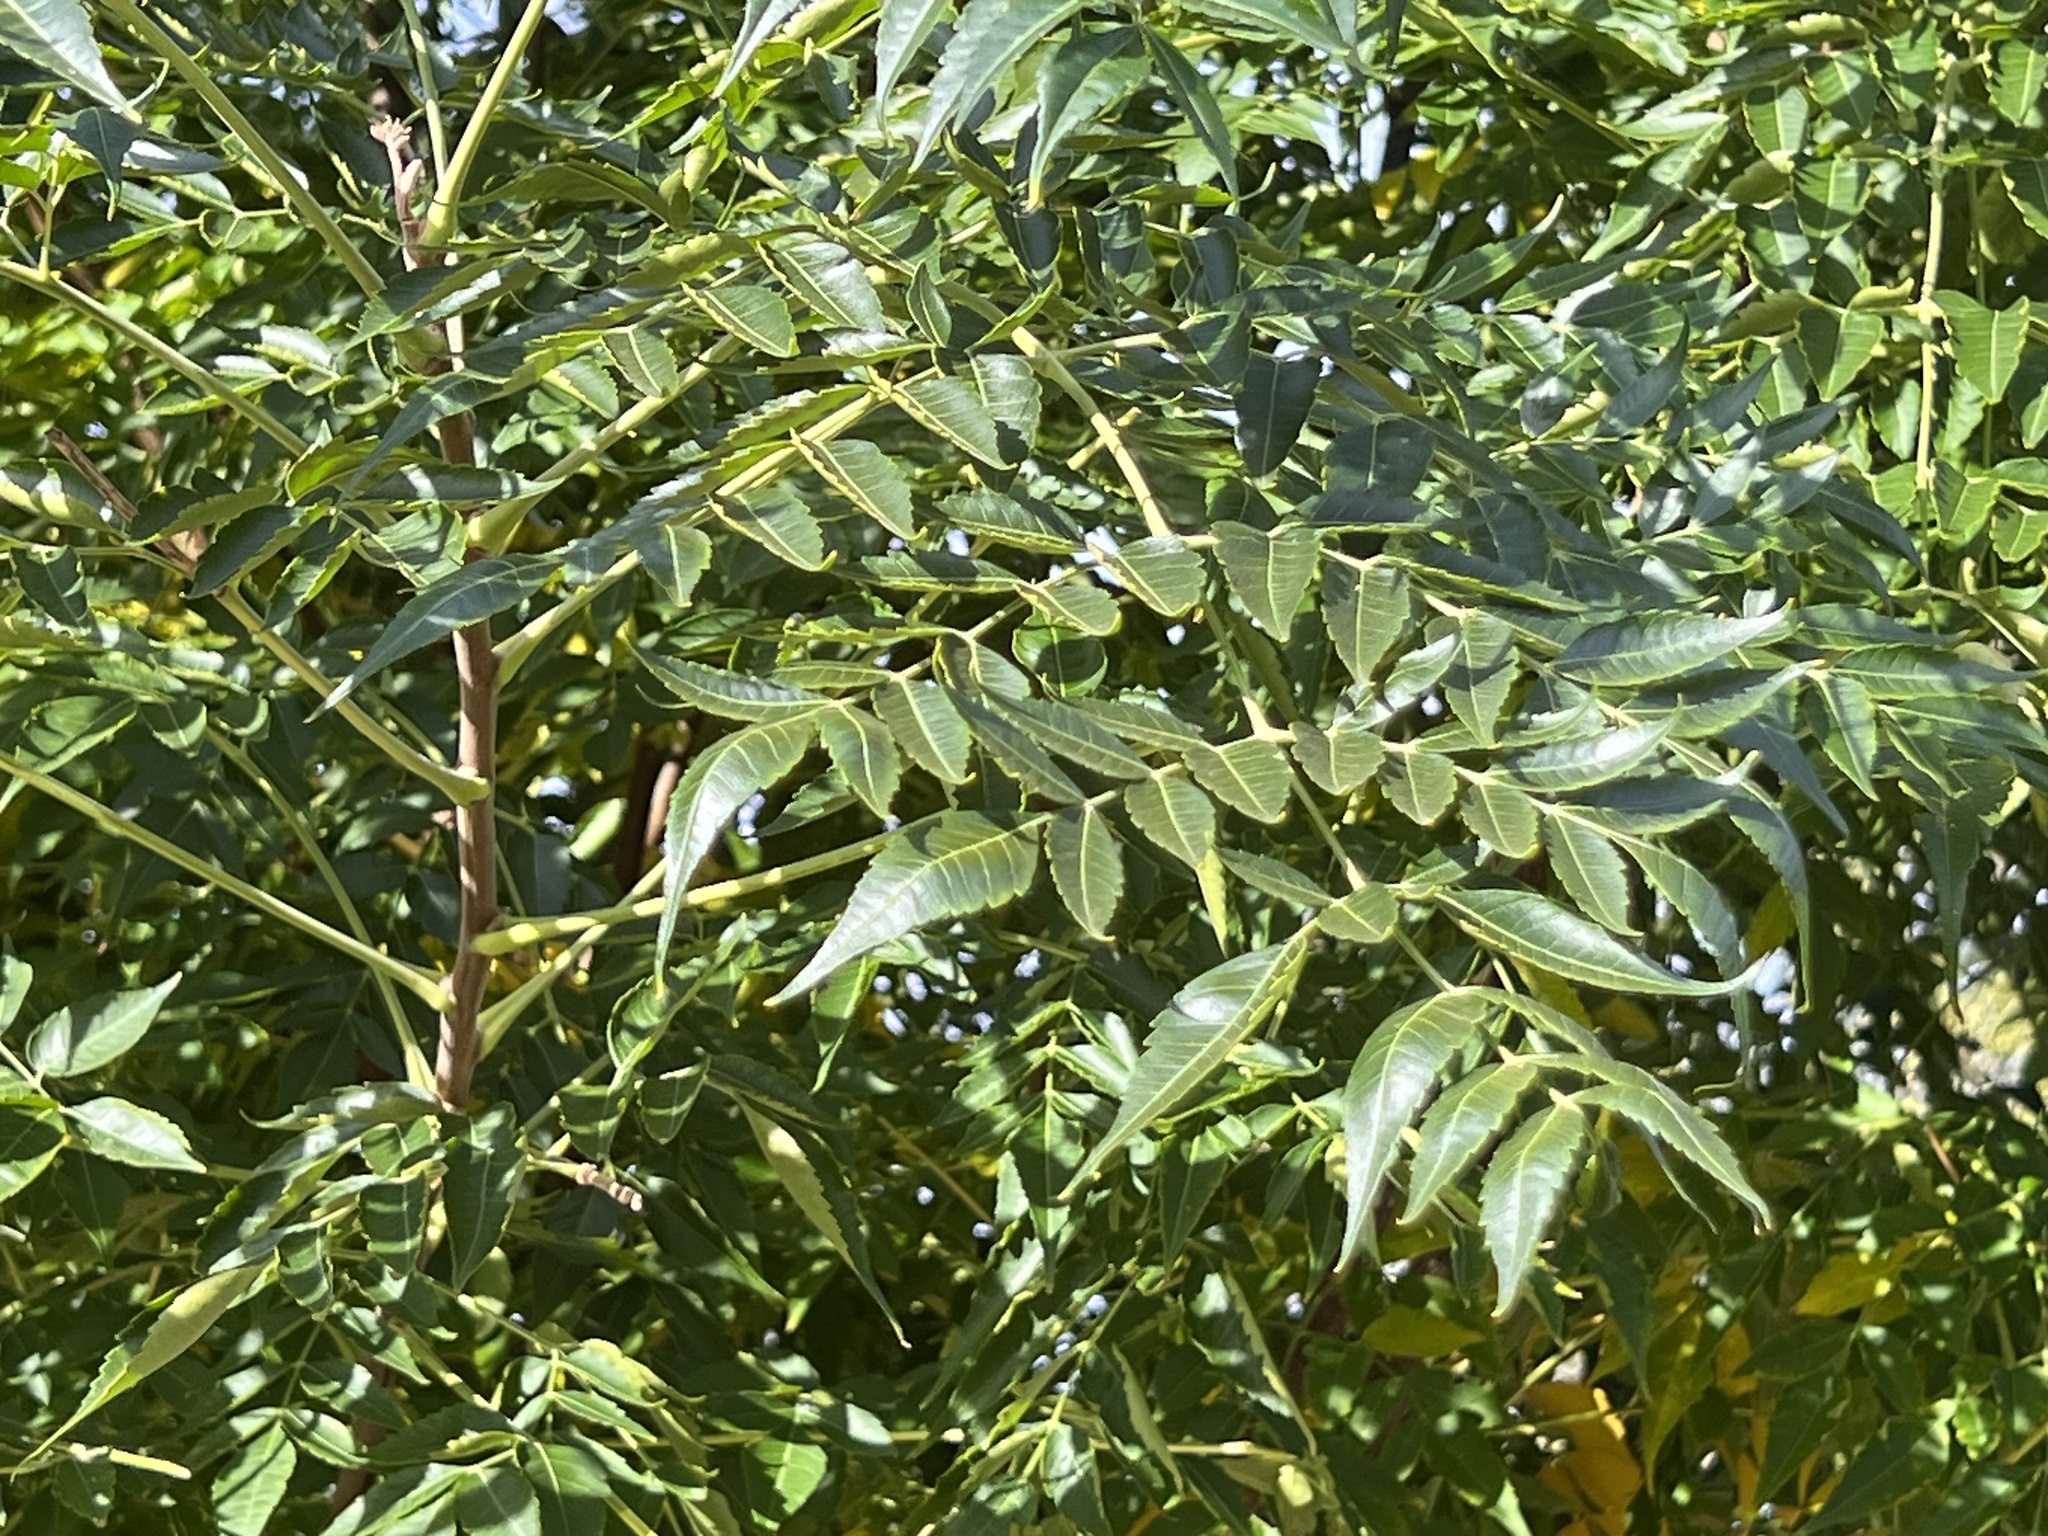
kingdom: Plantae
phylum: Tracheophyta
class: Magnoliopsida
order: Sapindales
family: Meliaceae
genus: Melia
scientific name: Melia azedarach
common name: Chinaberrytree
